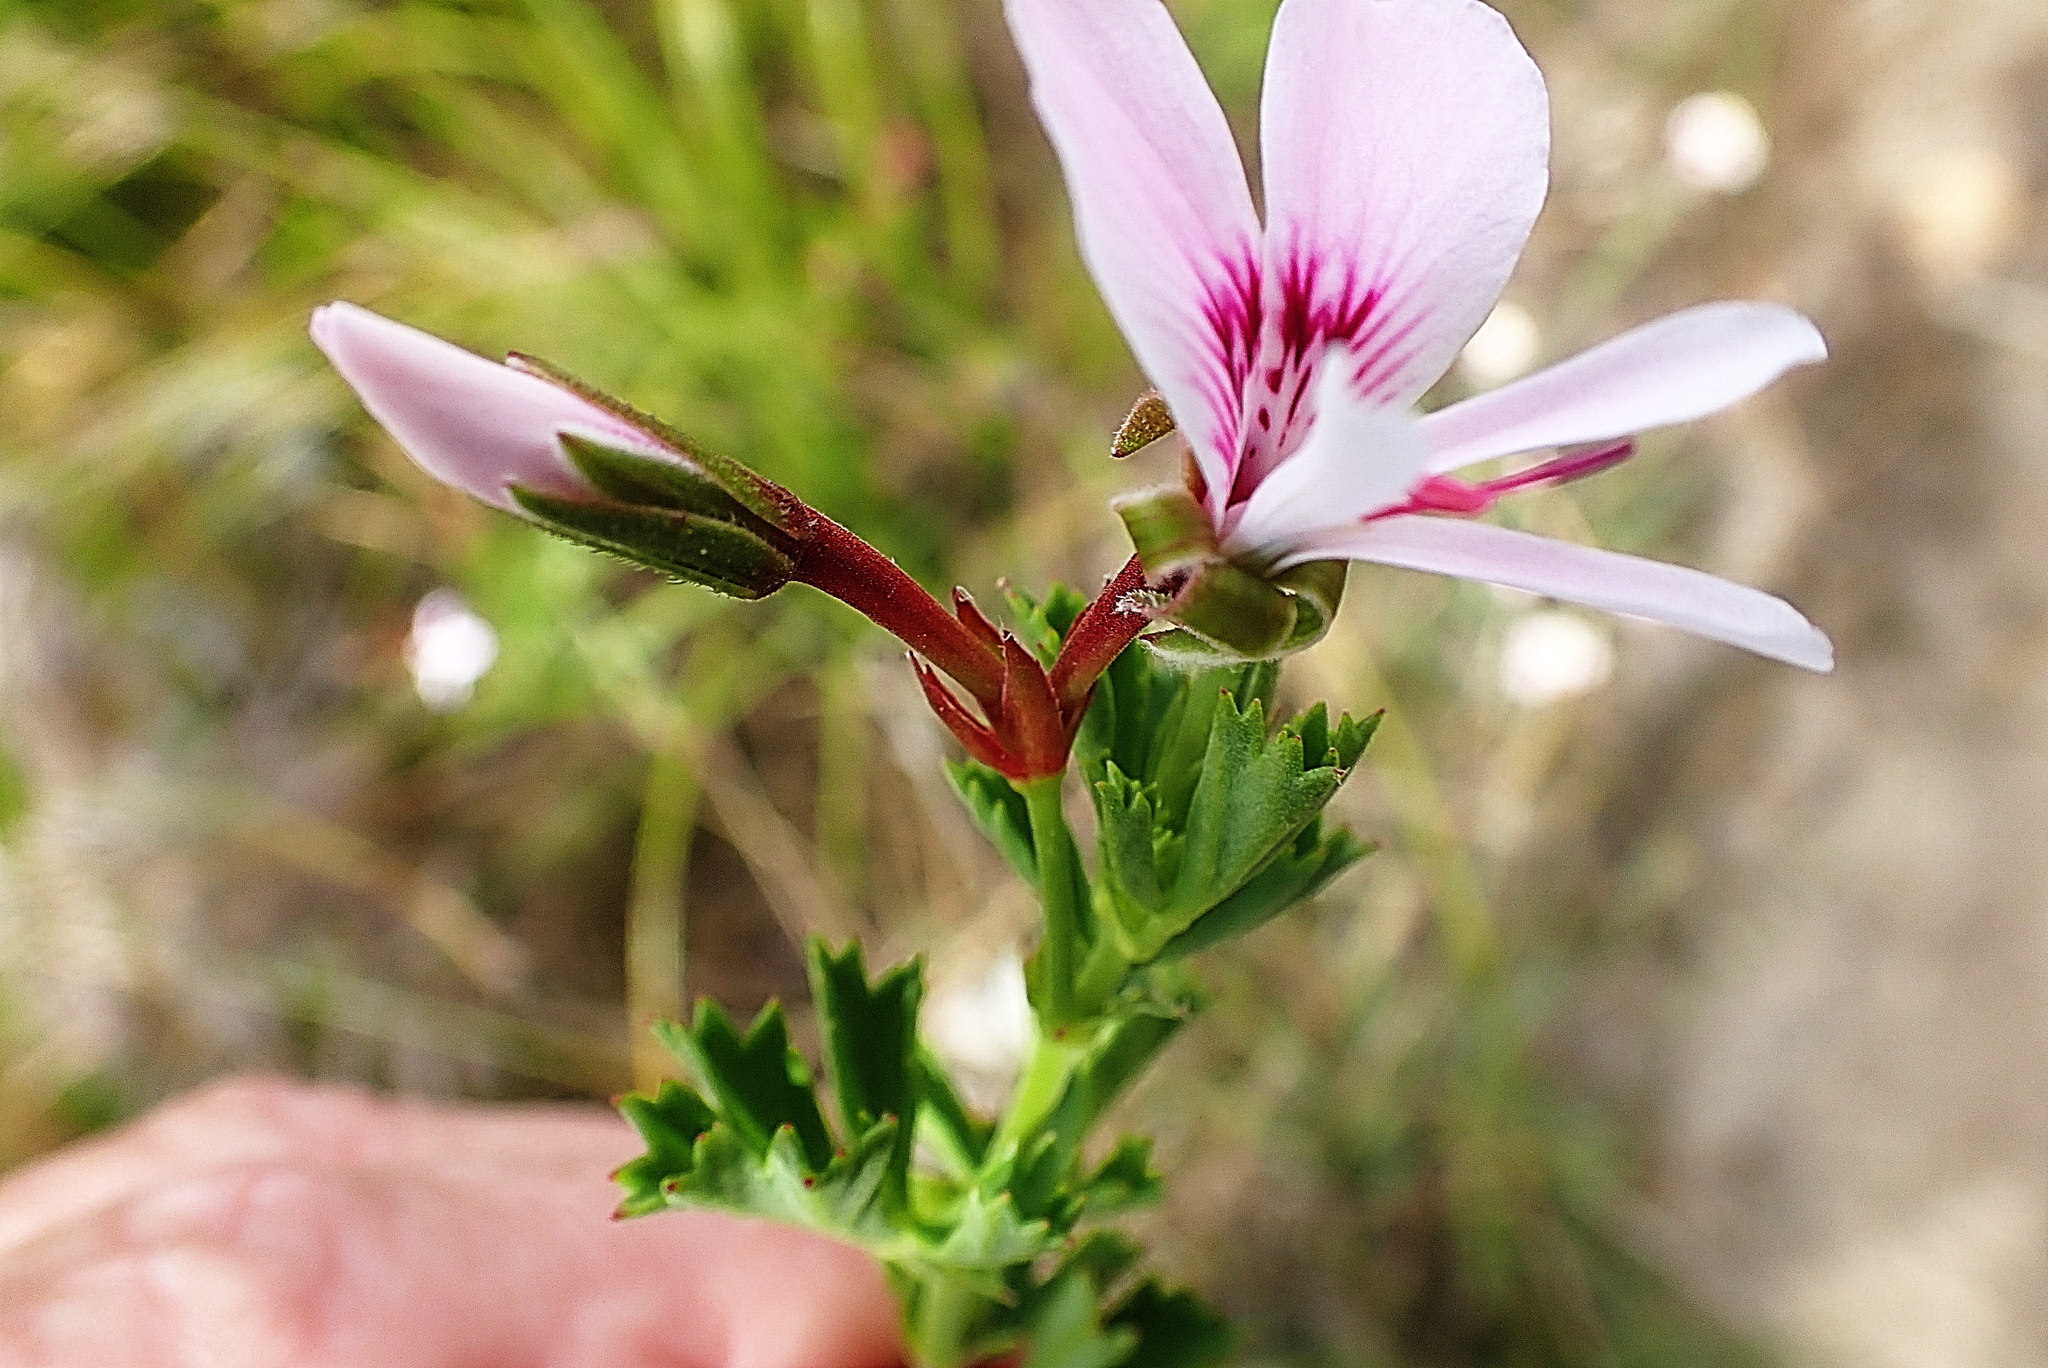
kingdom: Plantae
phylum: Tracheophyta
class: Magnoliopsida
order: Geraniales
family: Geraniaceae
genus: Pelargonium
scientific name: Pelargonium ternatum
